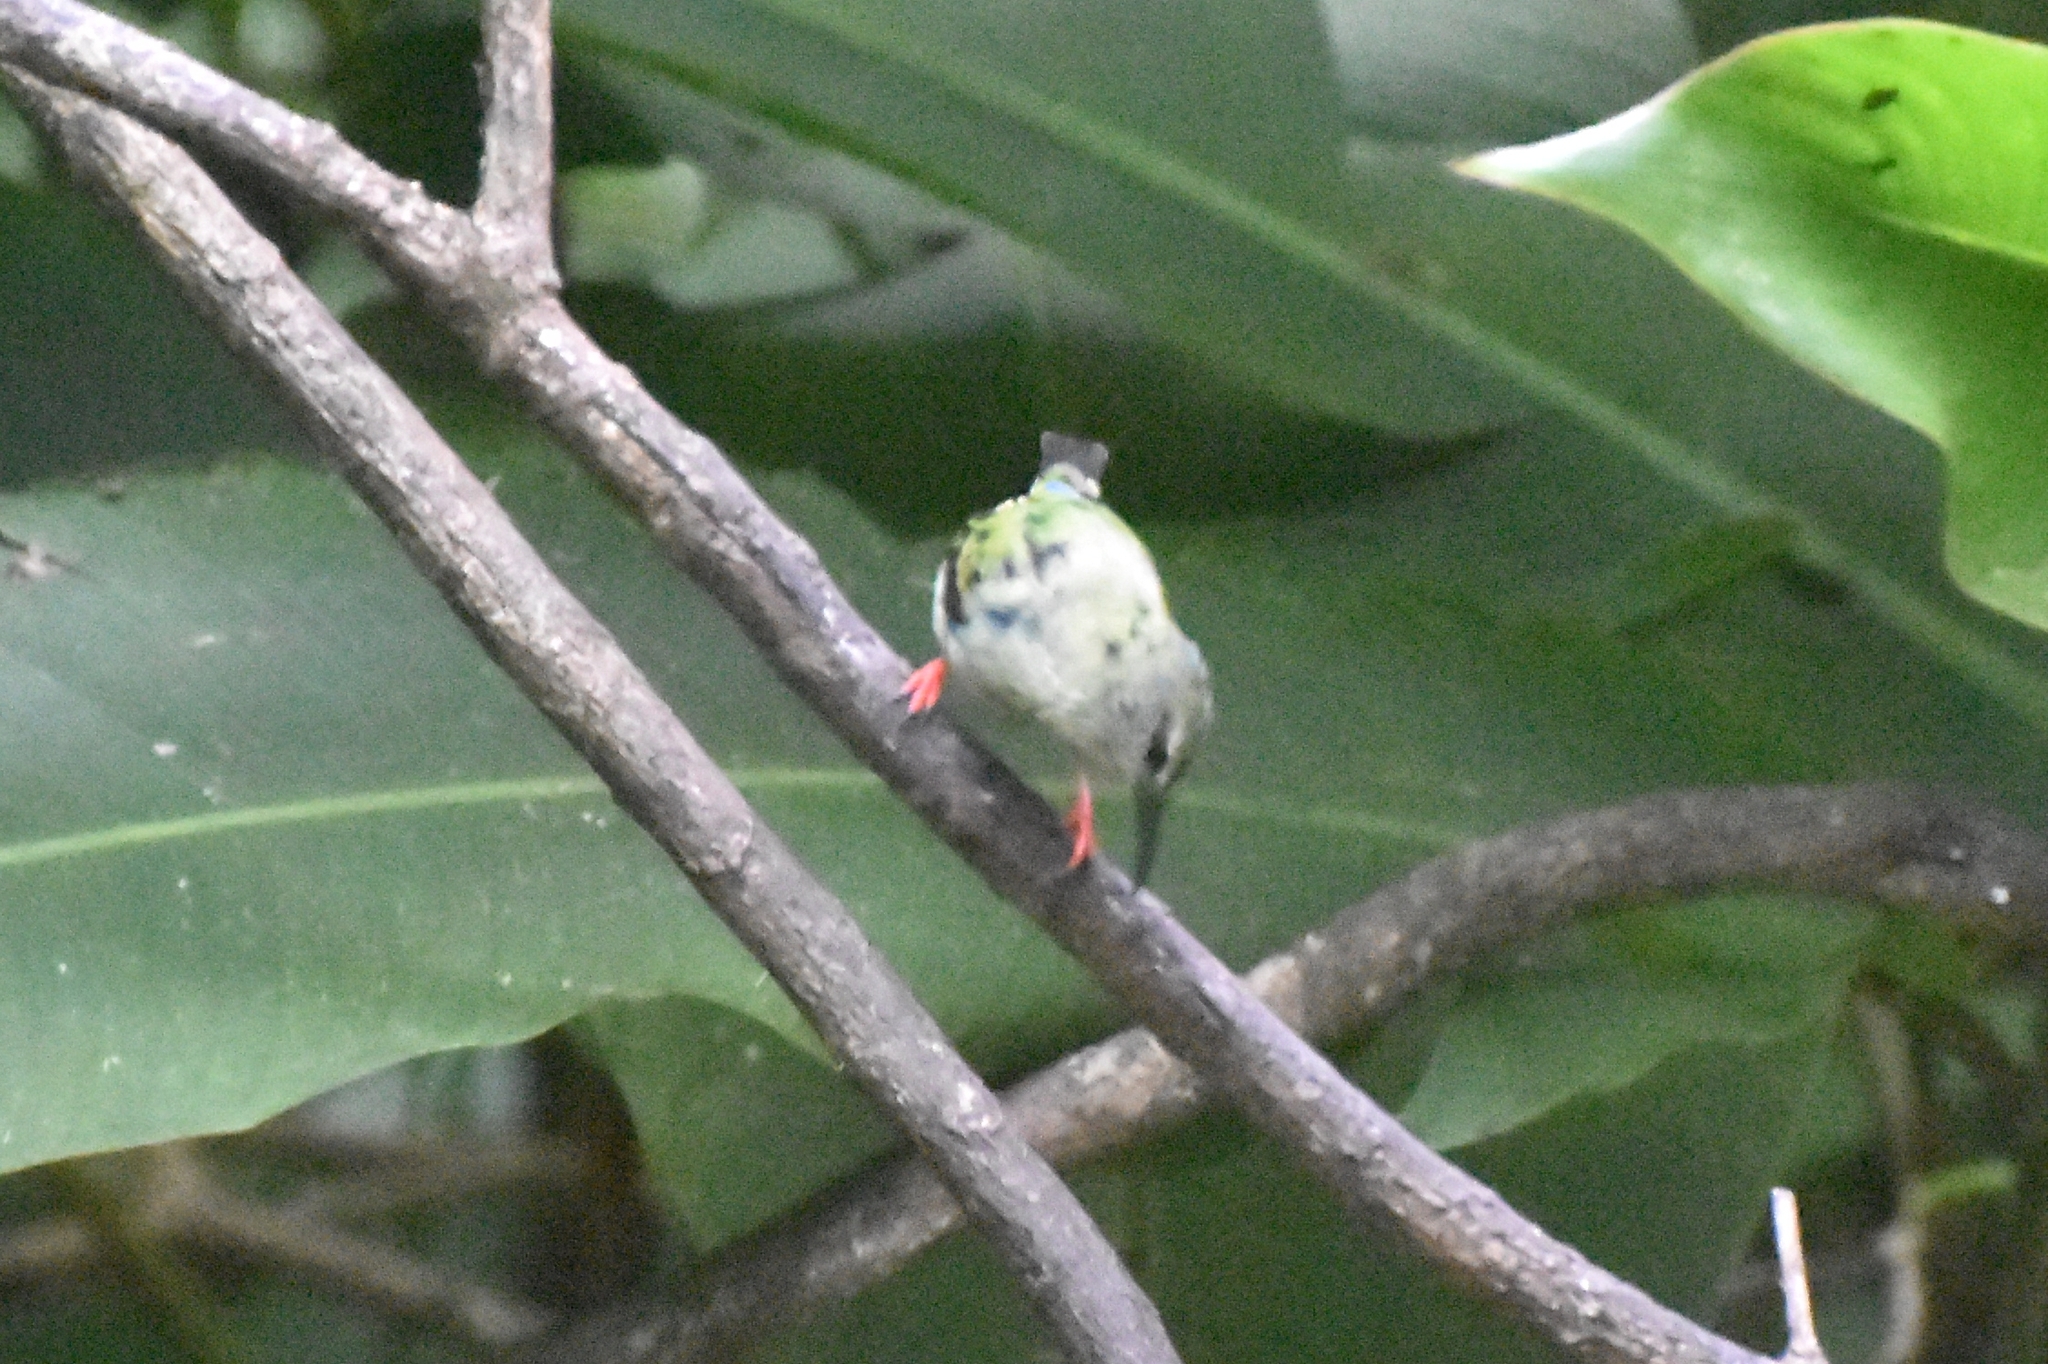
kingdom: Animalia
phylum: Chordata
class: Aves
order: Passeriformes
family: Thraupidae
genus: Cyanerpes
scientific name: Cyanerpes cyaneus
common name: Red-legged honeycreeper
